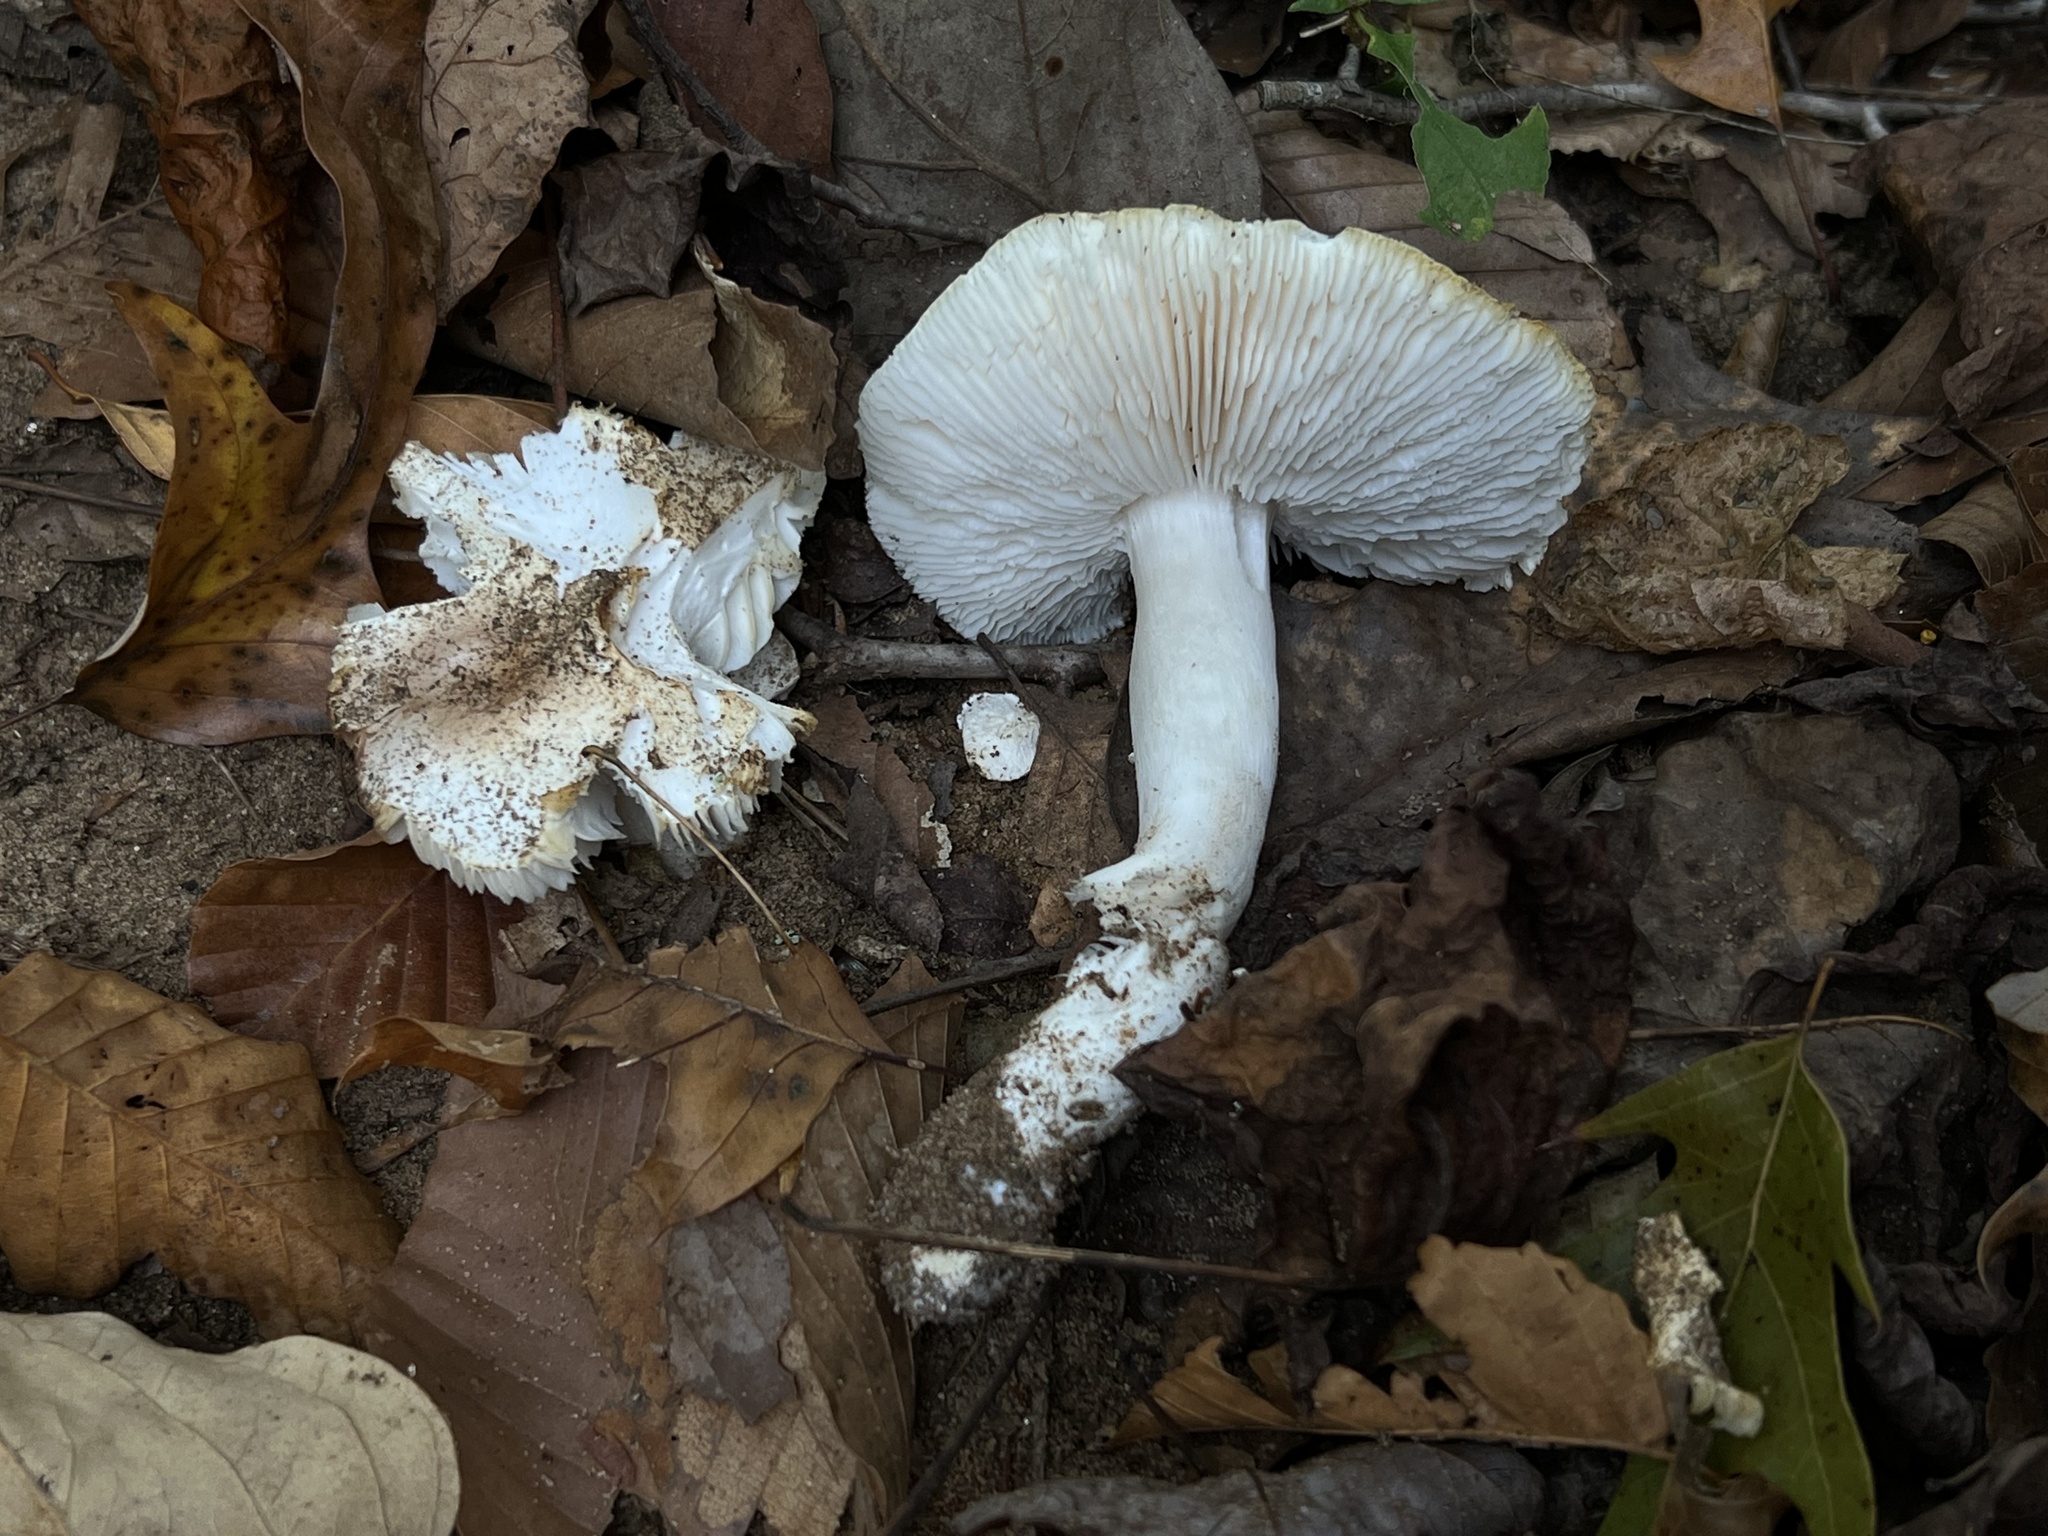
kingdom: Fungi
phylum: Basidiomycota
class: Agaricomycetes
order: Agaricales
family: Tricholomataceae
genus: Tricholoma
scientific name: Tricholoma columbetta
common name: Blue spot knight
